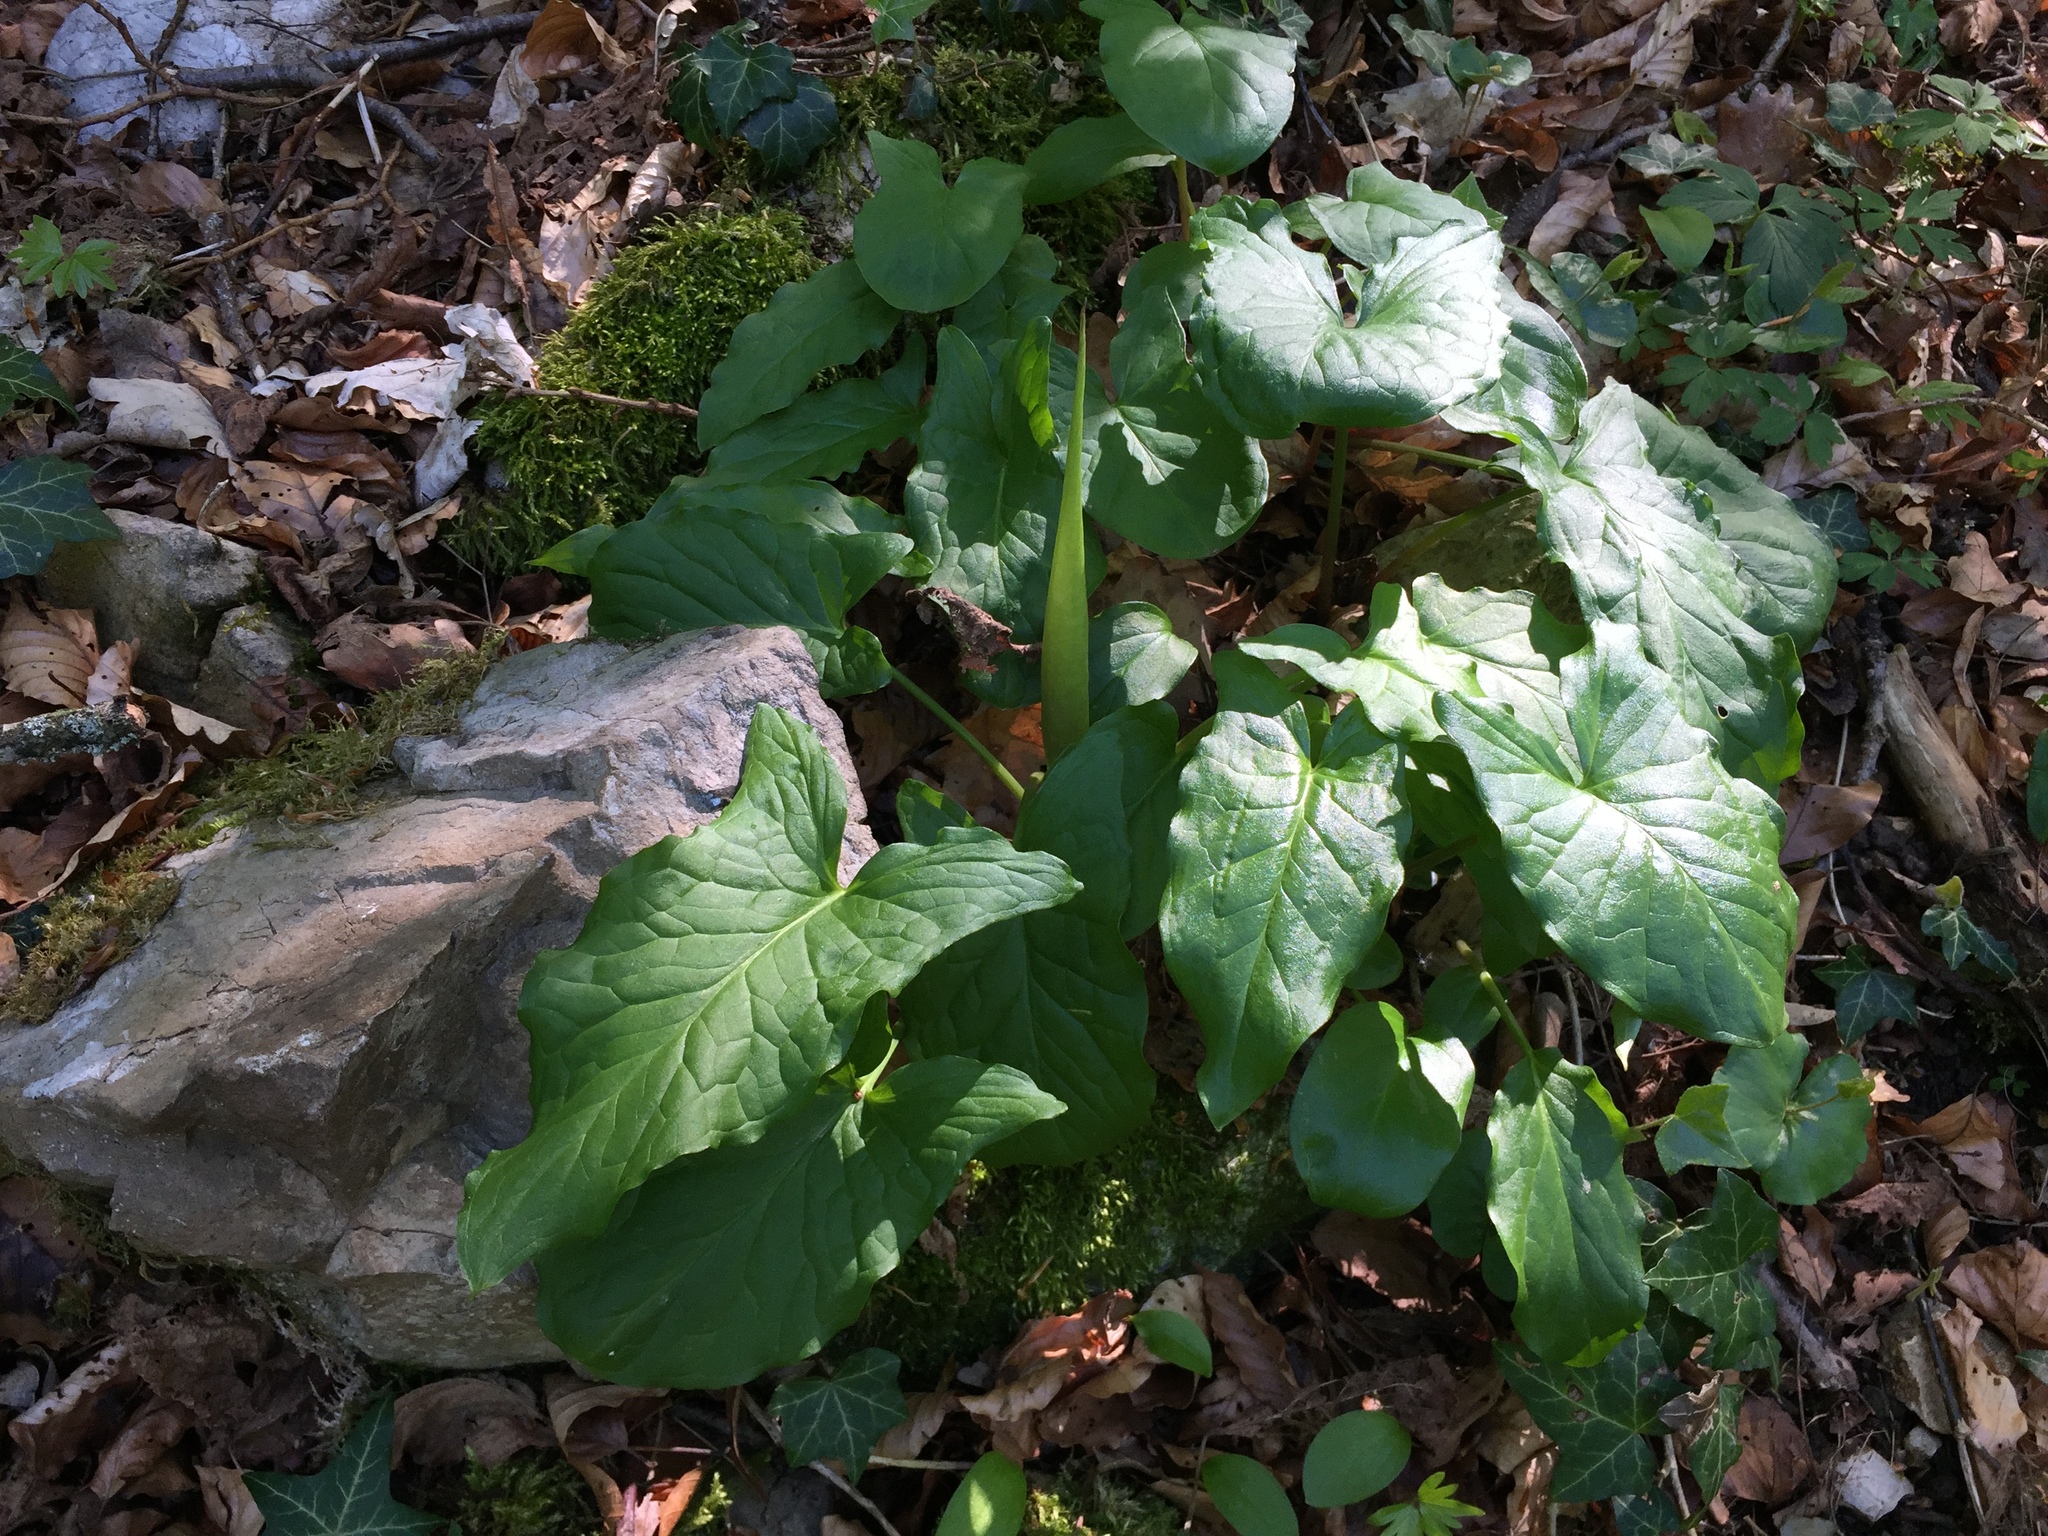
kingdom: Plantae
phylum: Tracheophyta
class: Liliopsida
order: Alismatales
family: Araceae
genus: Arum
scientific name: Arum maculatum
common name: Lords-and-ladies
